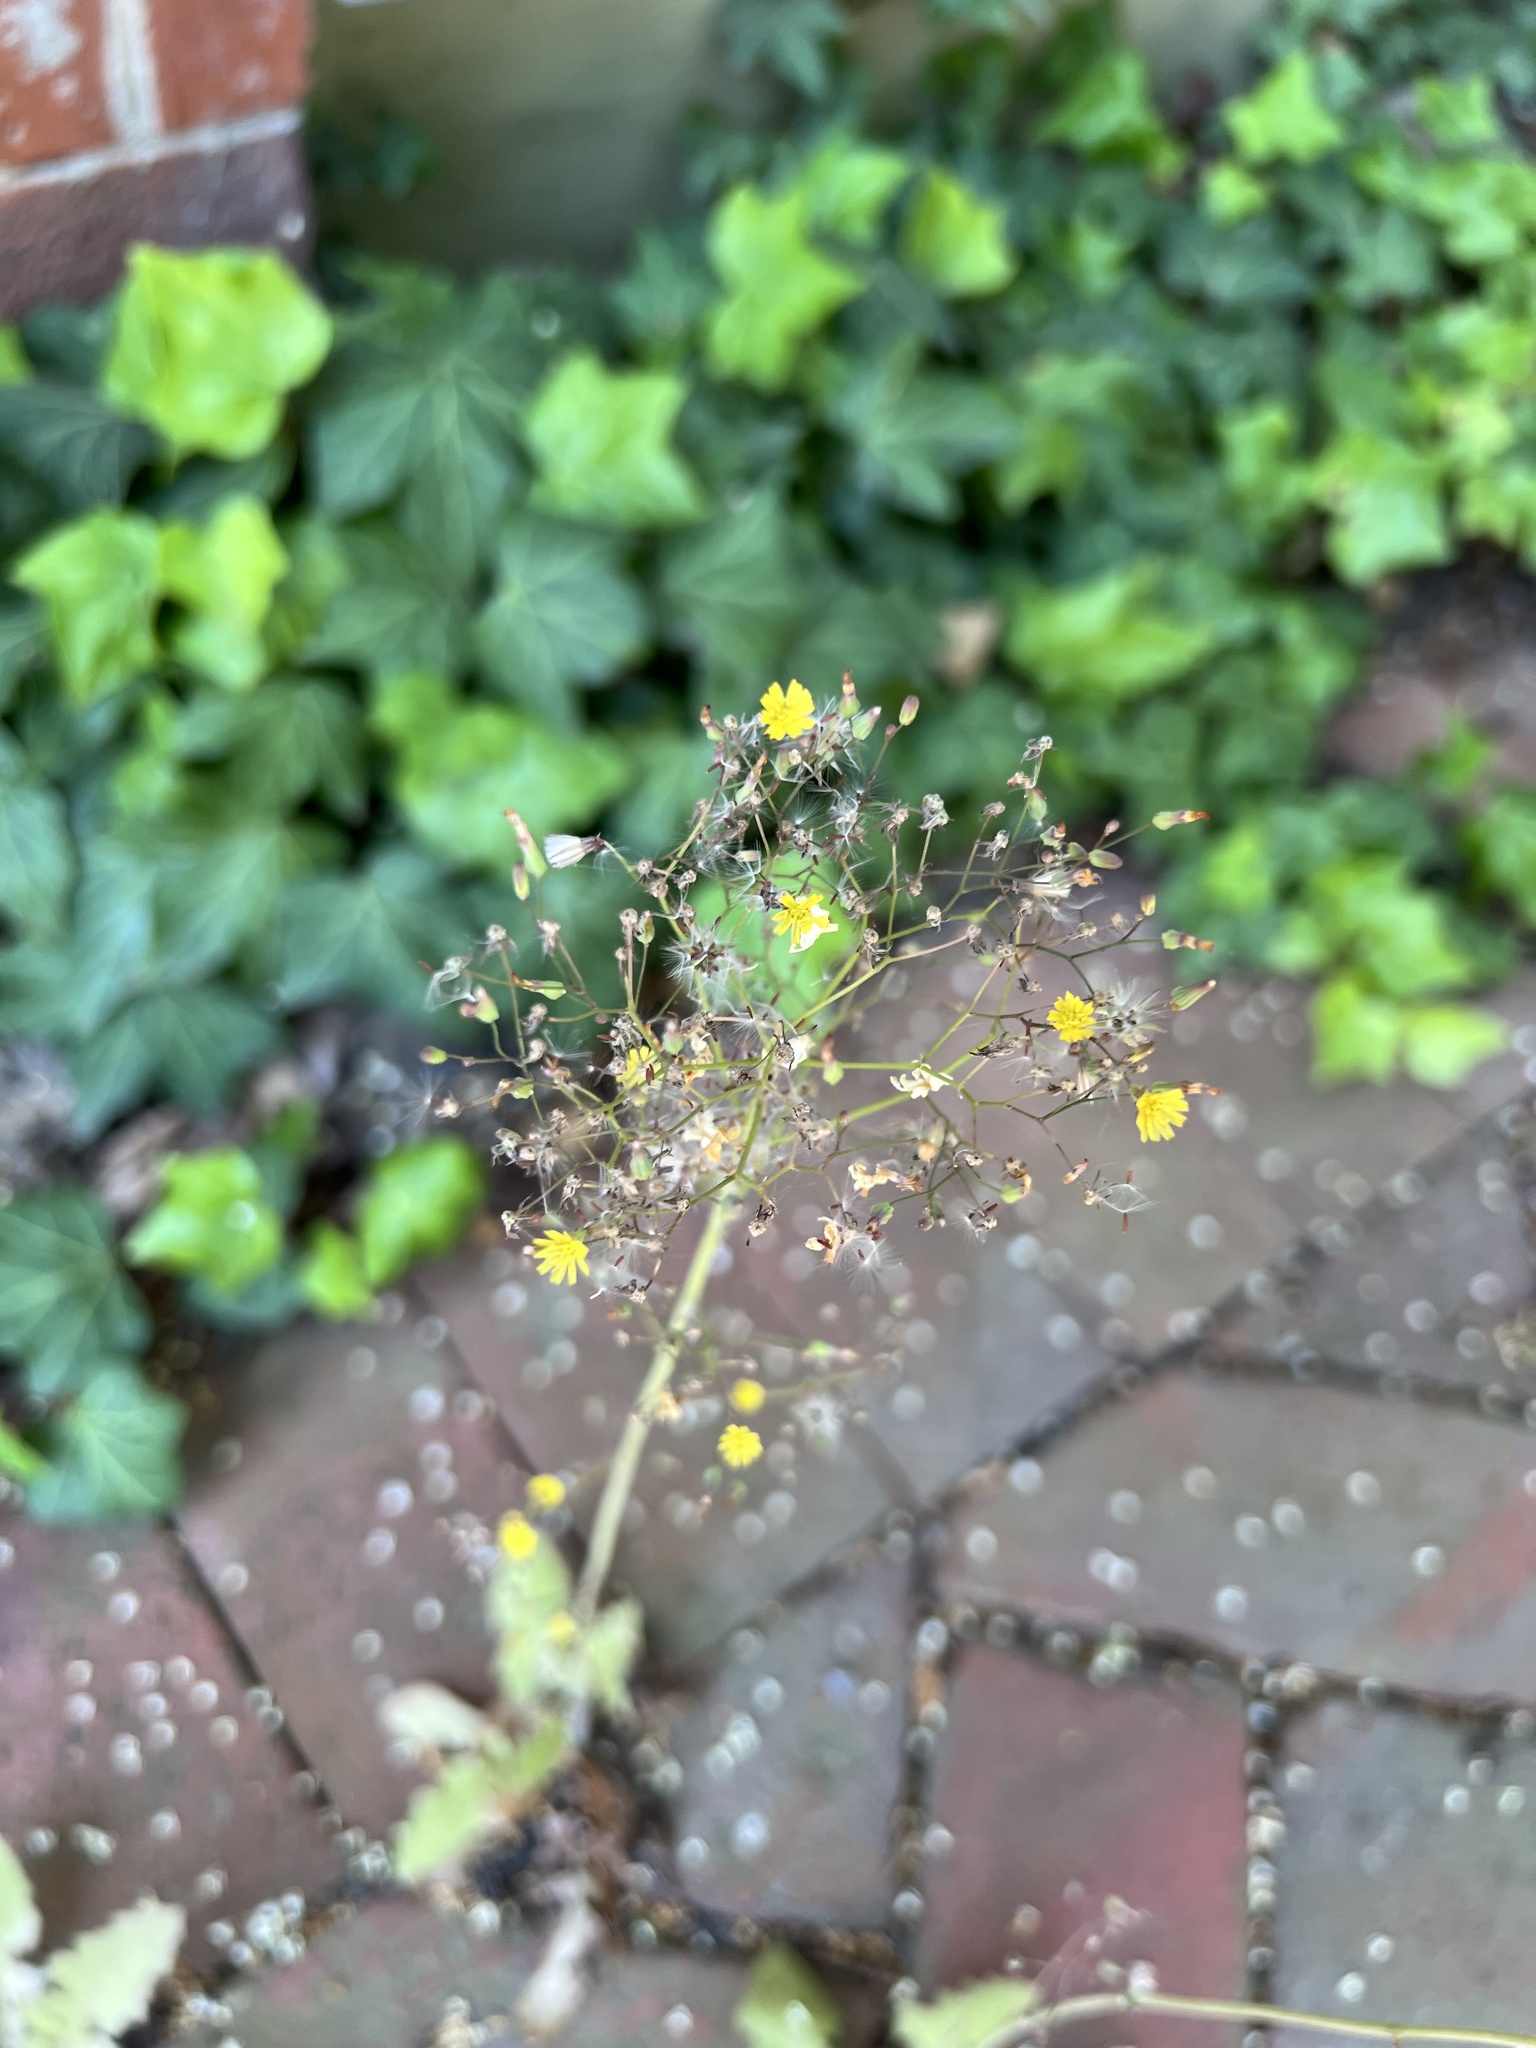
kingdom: Plantae
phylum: Tracheophyta
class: Magnoliopsida
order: Asterales
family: Asteraceae
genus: Youngia
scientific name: Youngia japonica
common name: Oriental false hawksbeard
